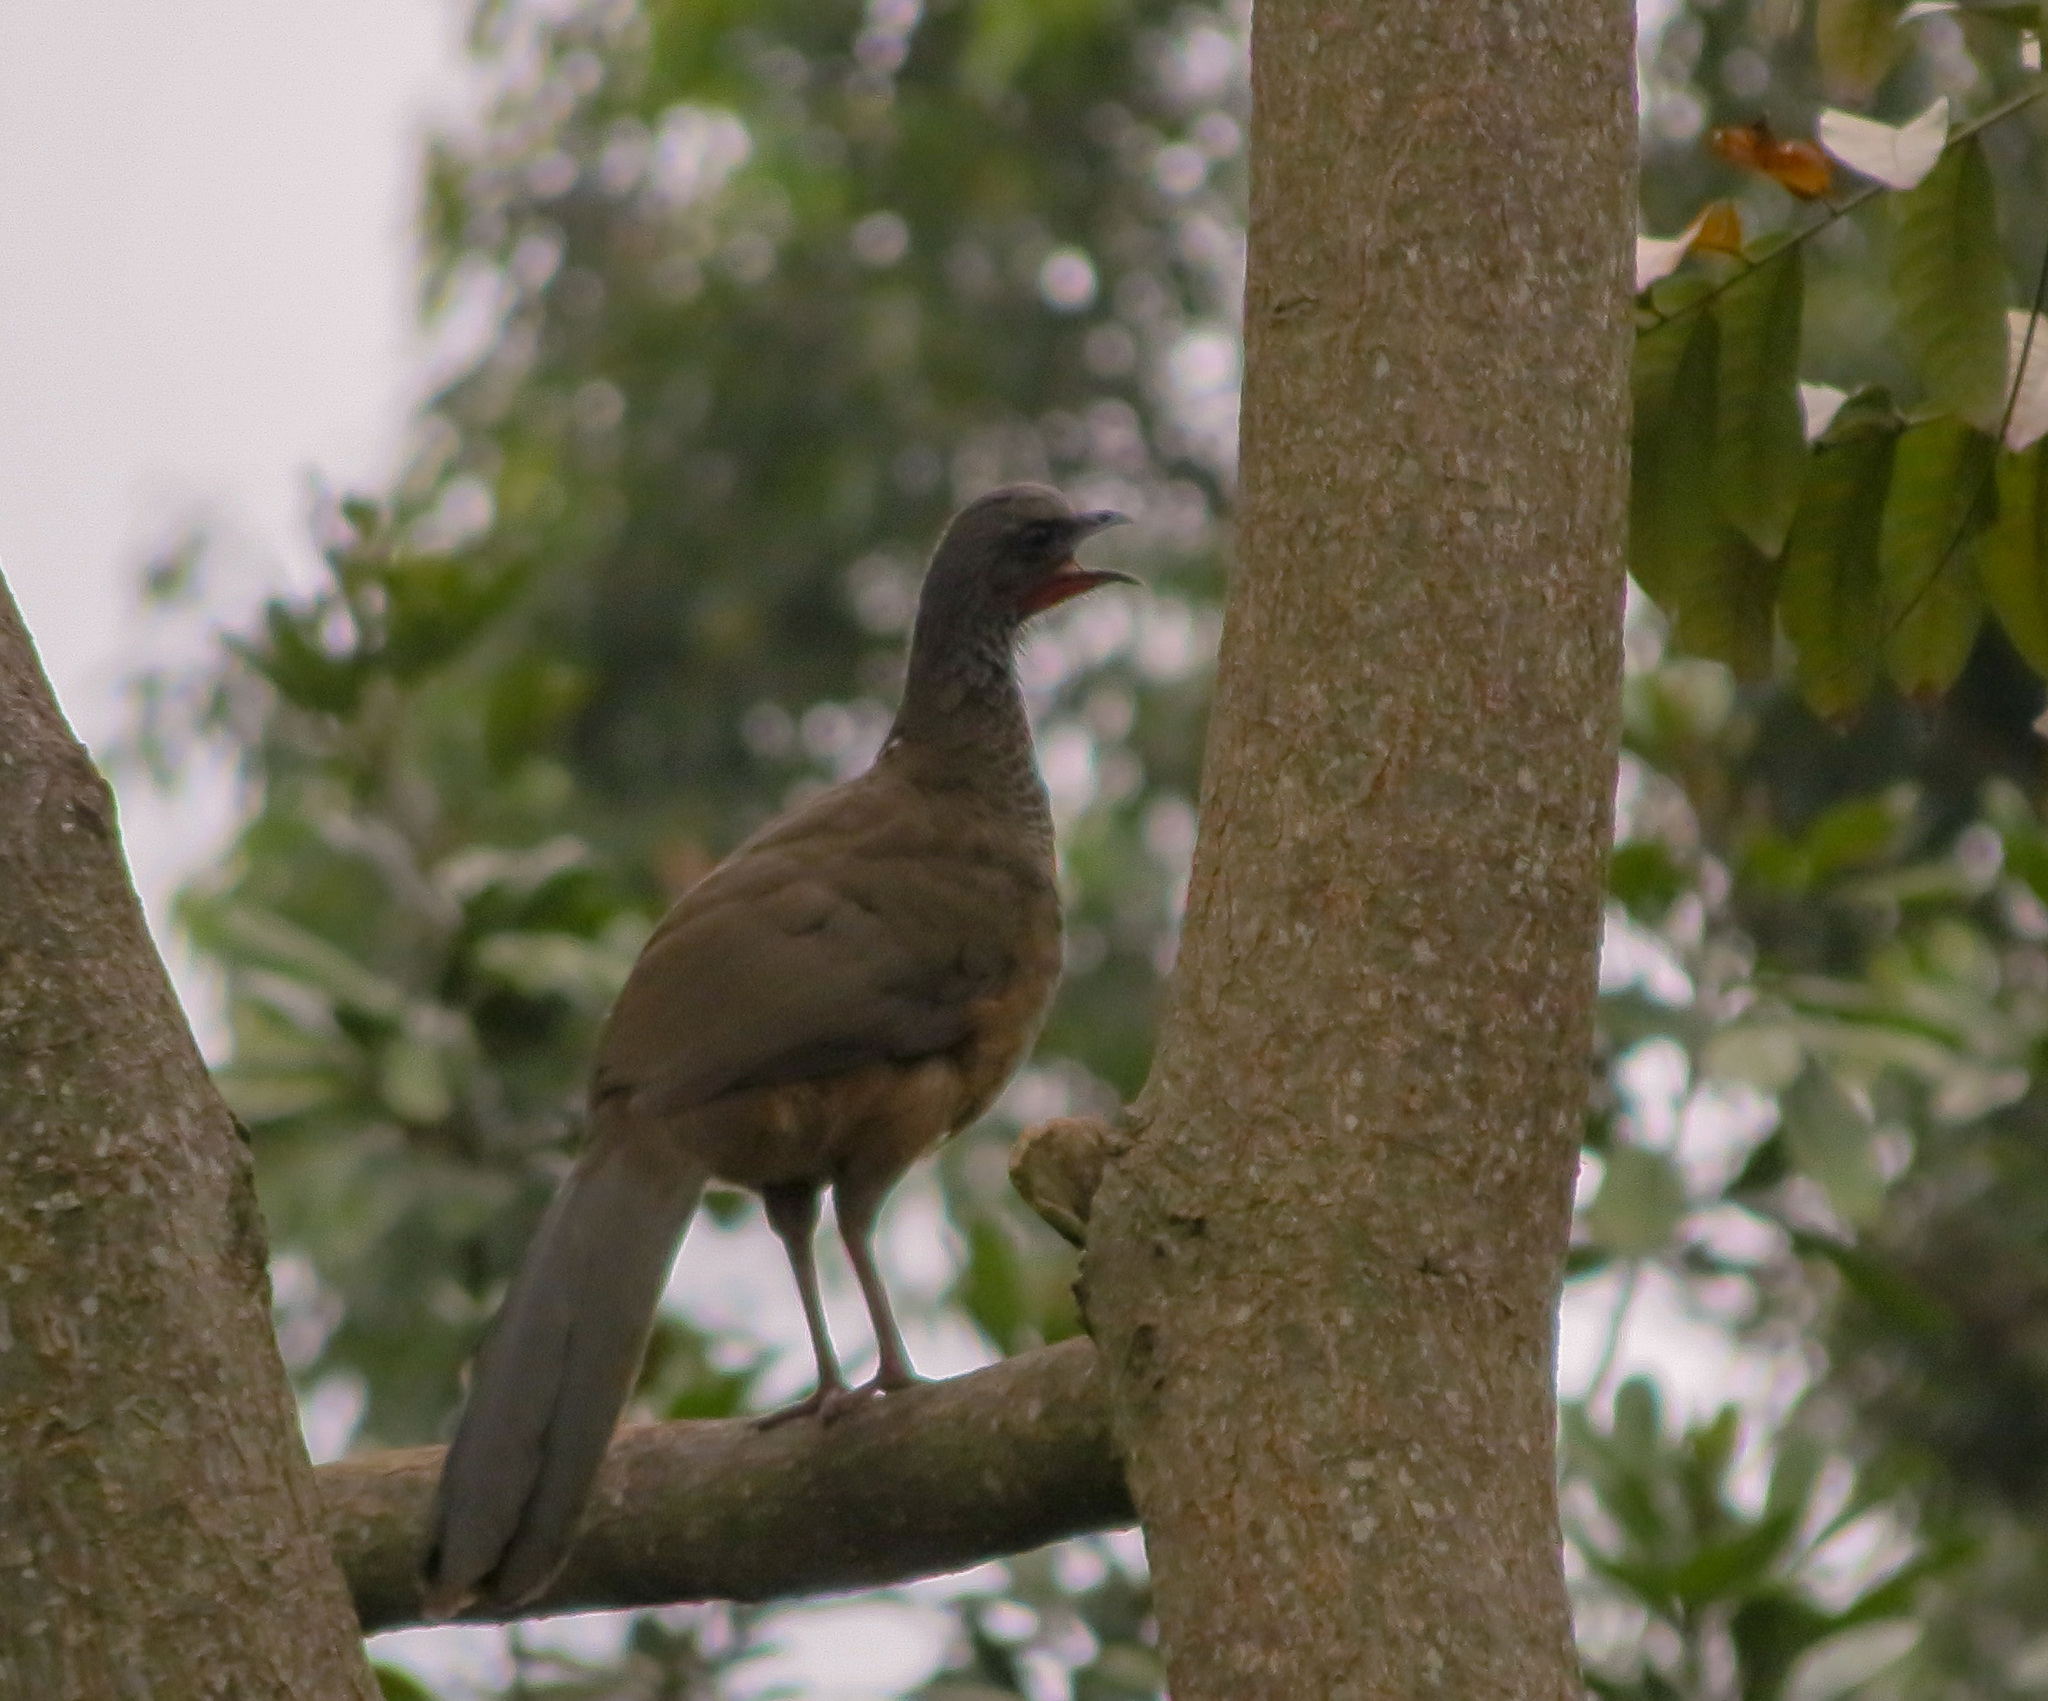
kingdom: Animalia
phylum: Chordata
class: Aves
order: Galliformes
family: Cracidae
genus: Ortalis
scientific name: Ortalis columbiana
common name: Colombian chachalaca
